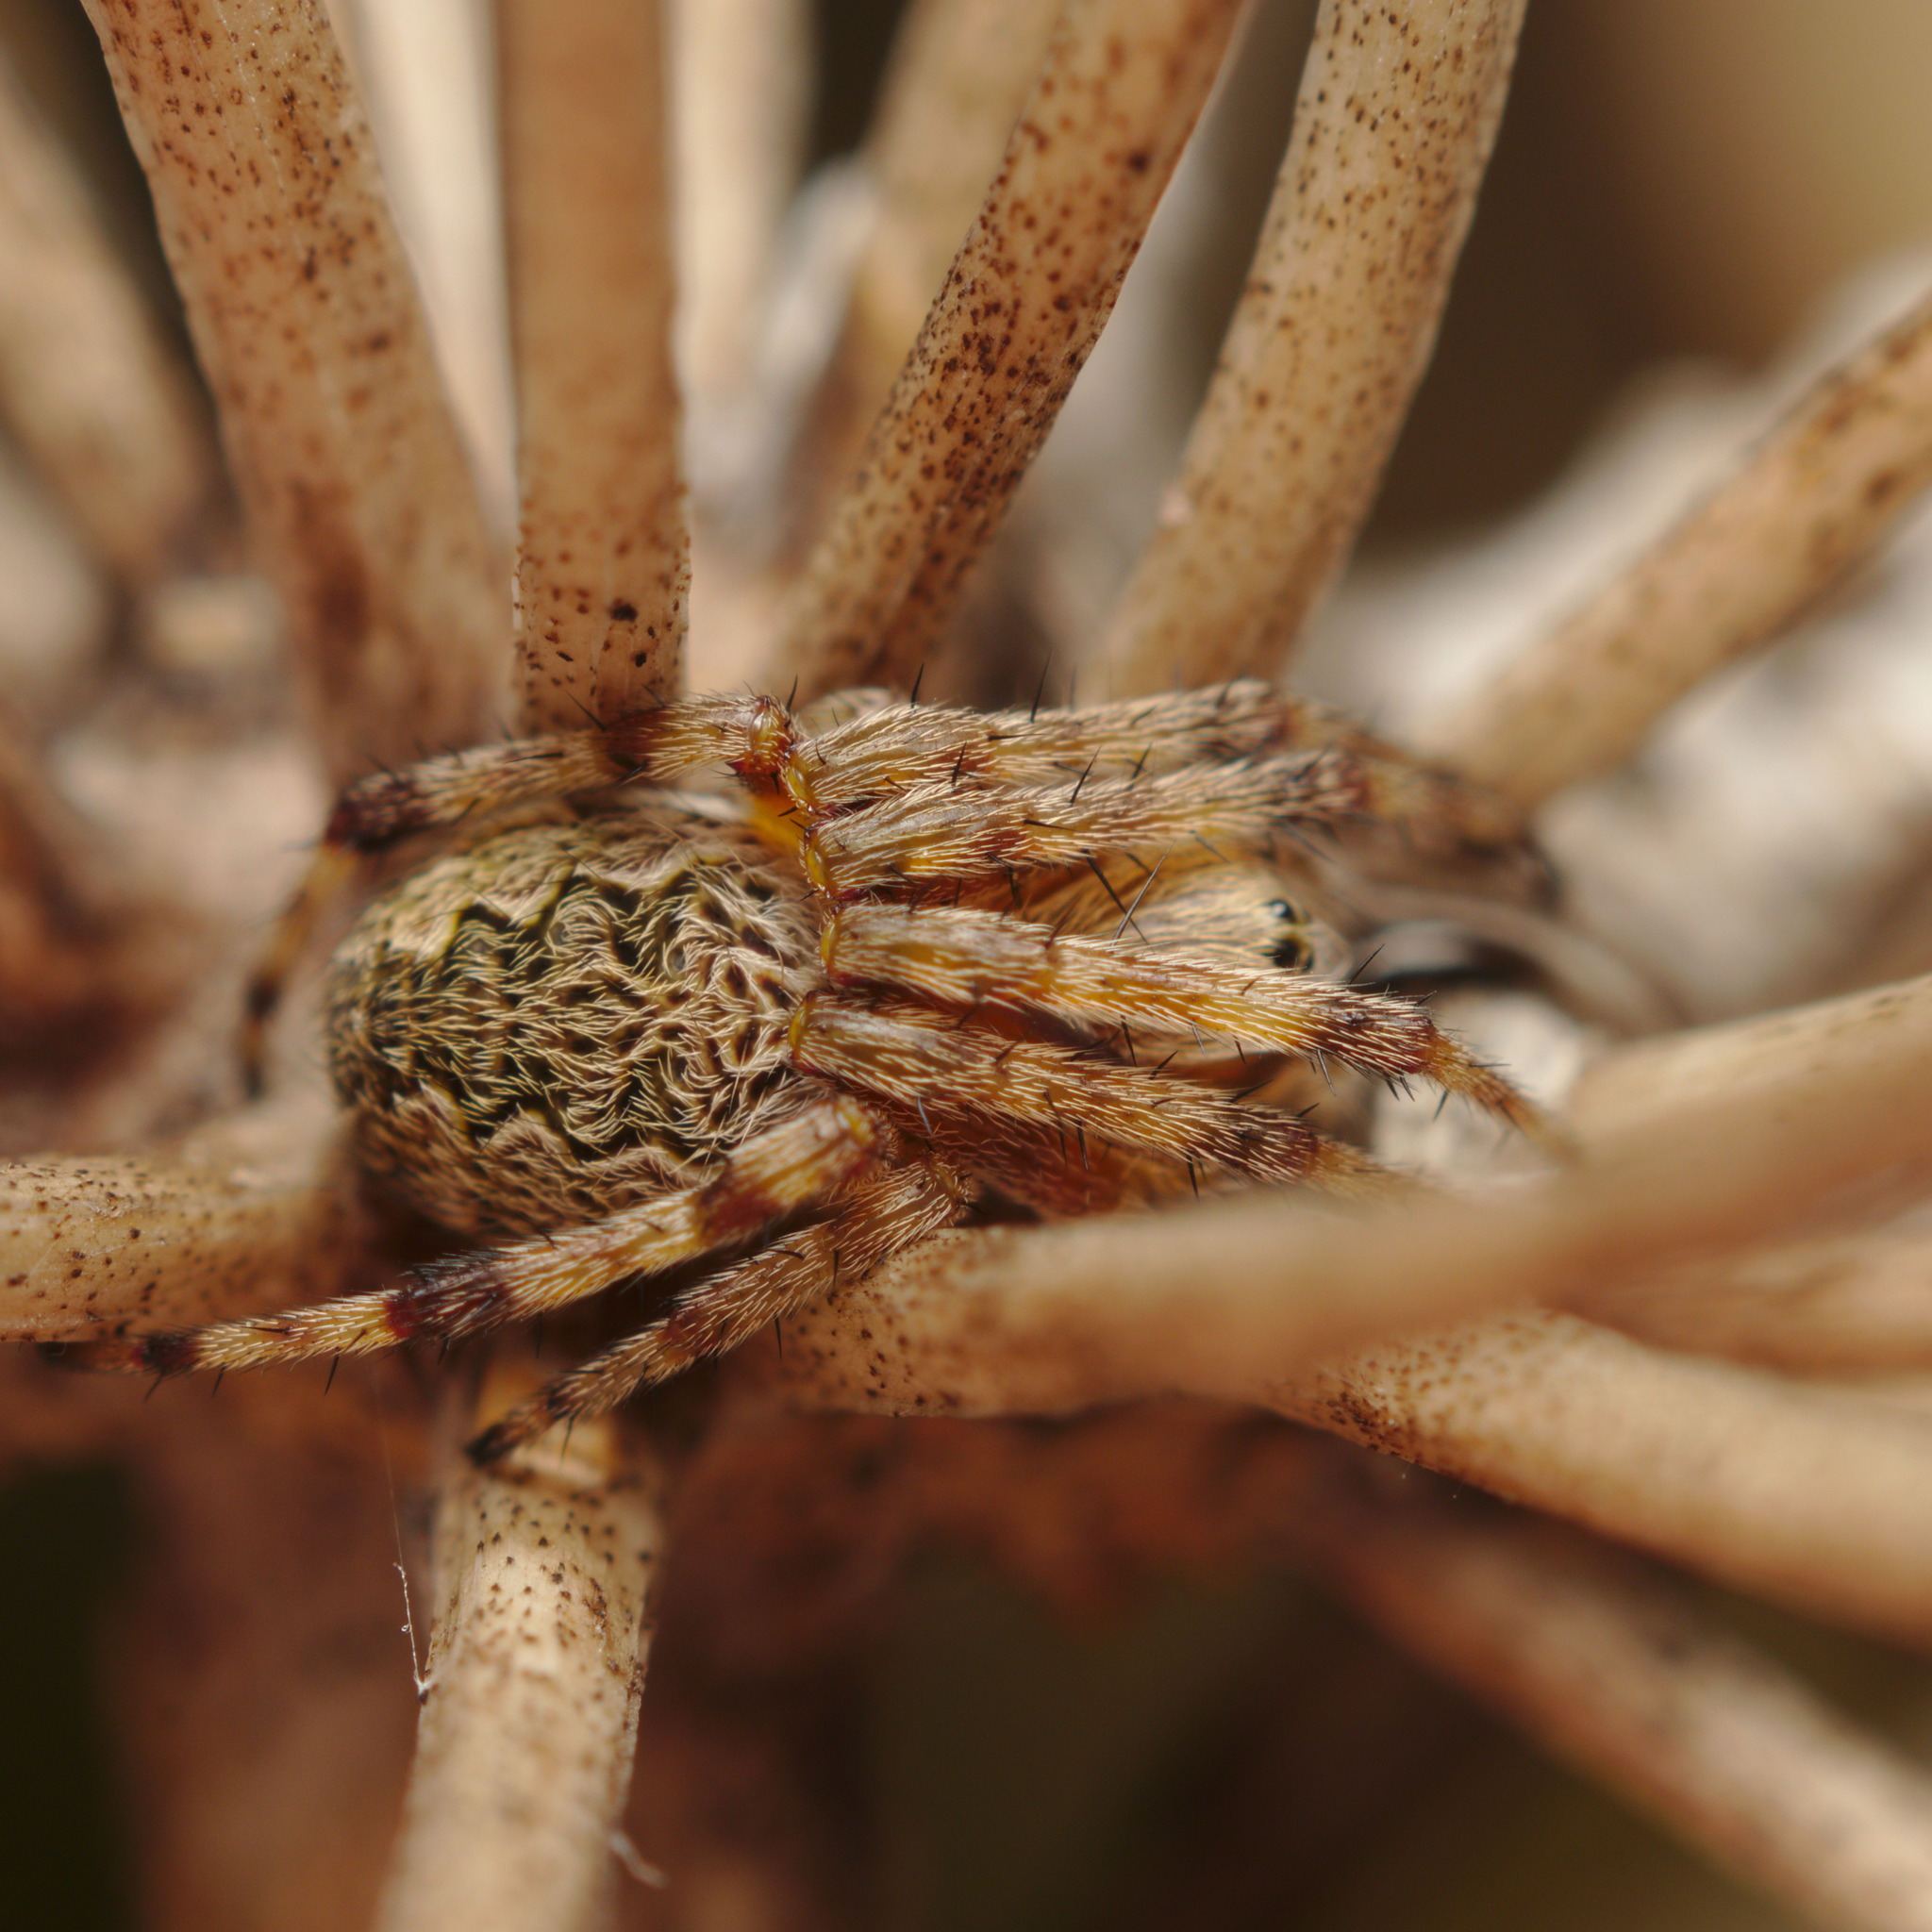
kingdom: Animalia
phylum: Arthropoda
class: Arachnida
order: Araneae
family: Araneidae
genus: Salsa
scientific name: Salsa fuliginata
